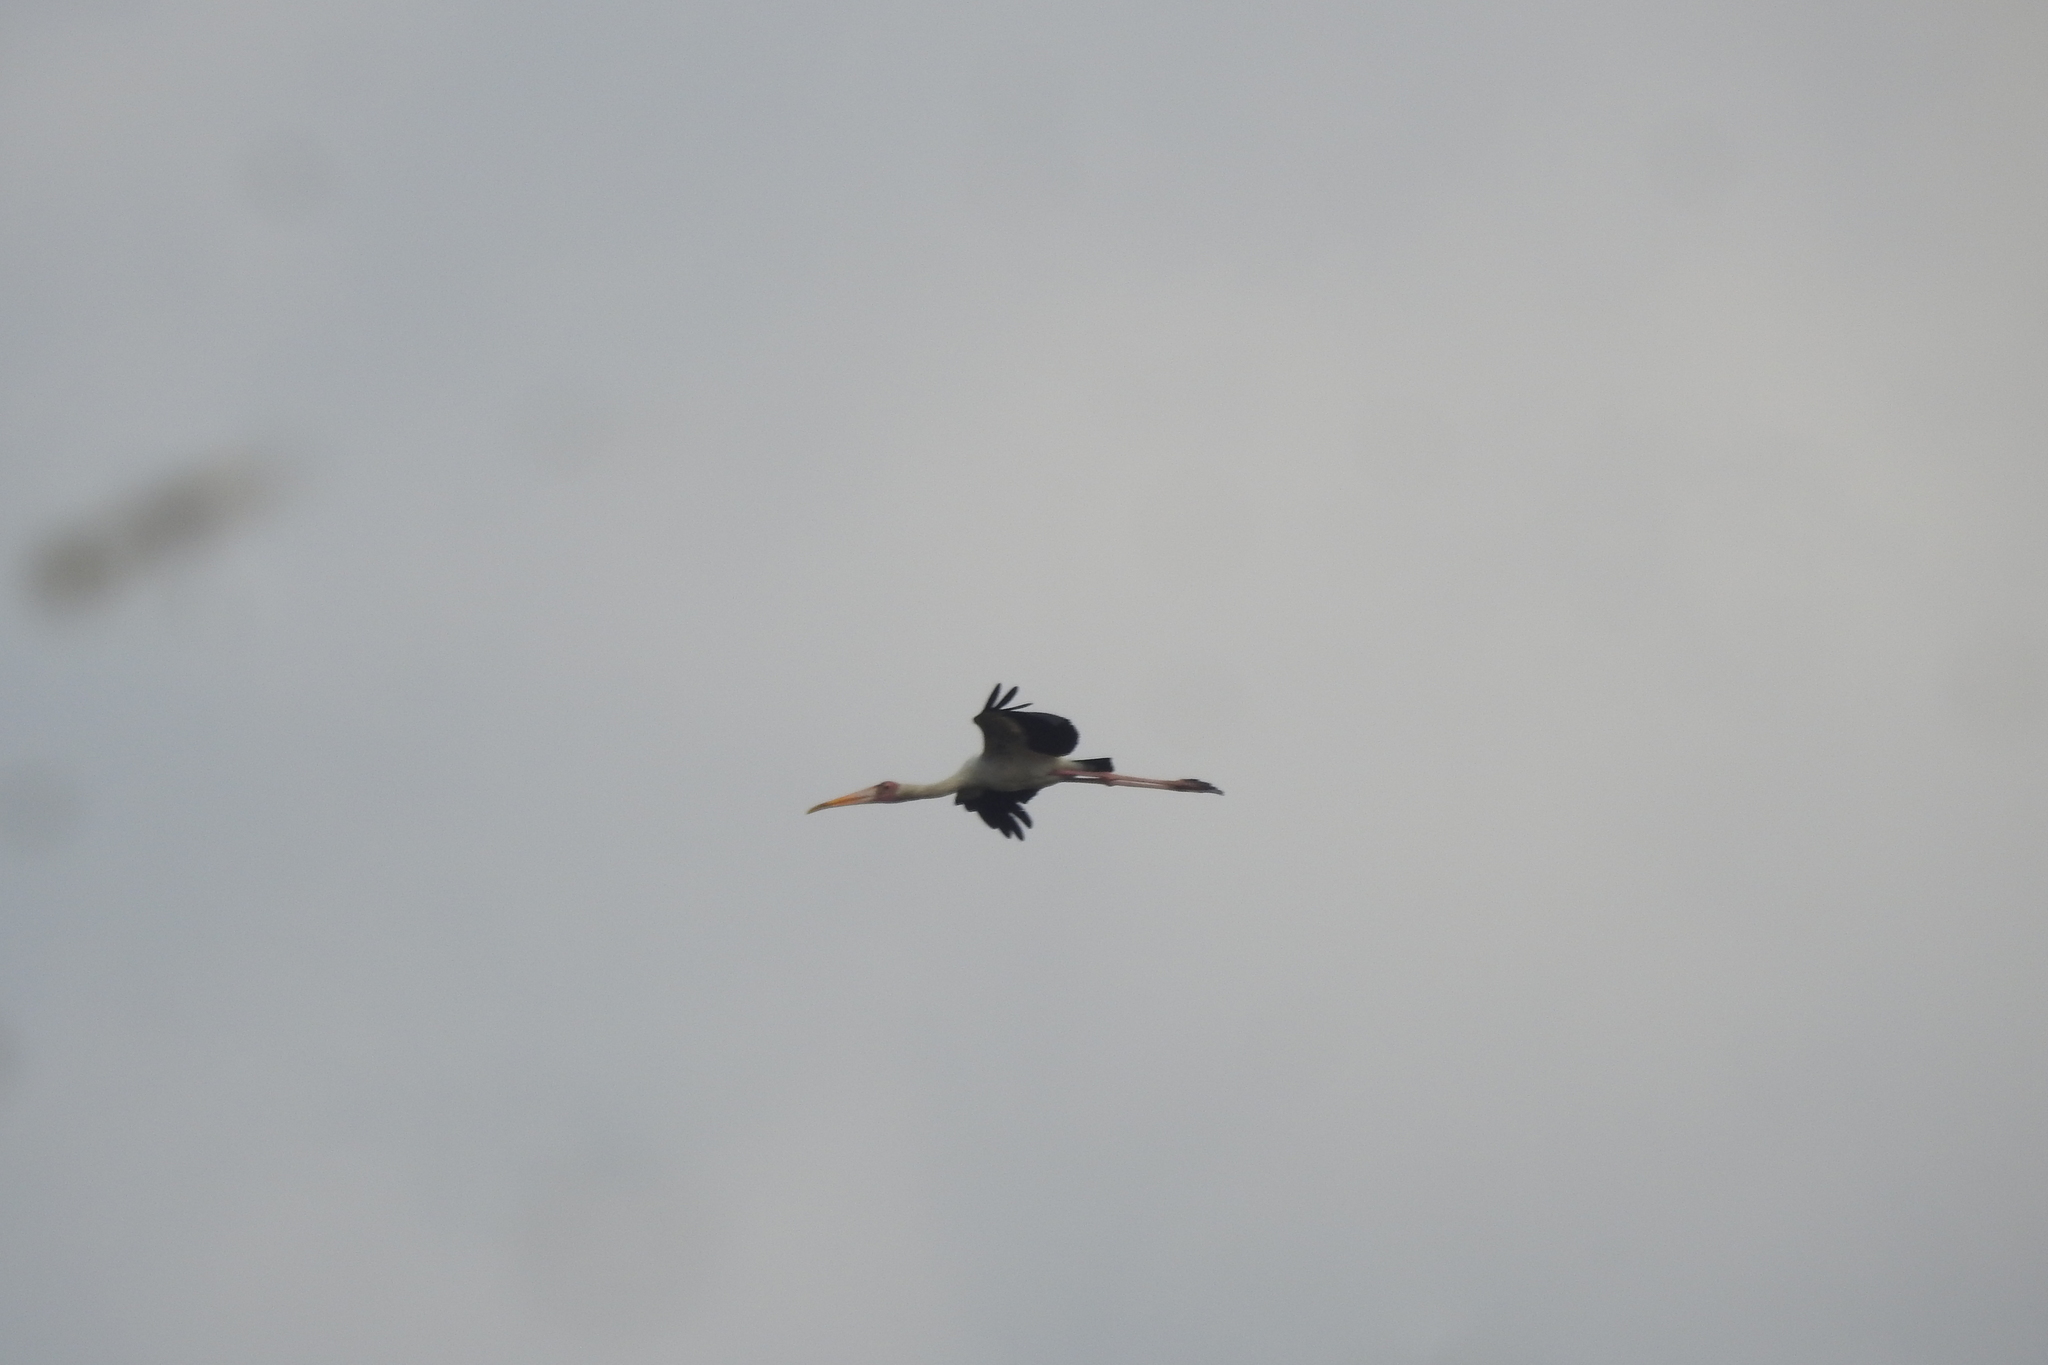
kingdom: Animalia
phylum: Chordata
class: Aves
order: Ciconiiformes
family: Ciconiidae
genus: Mycteria
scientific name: Mycteria cinerea
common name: Milky stork
